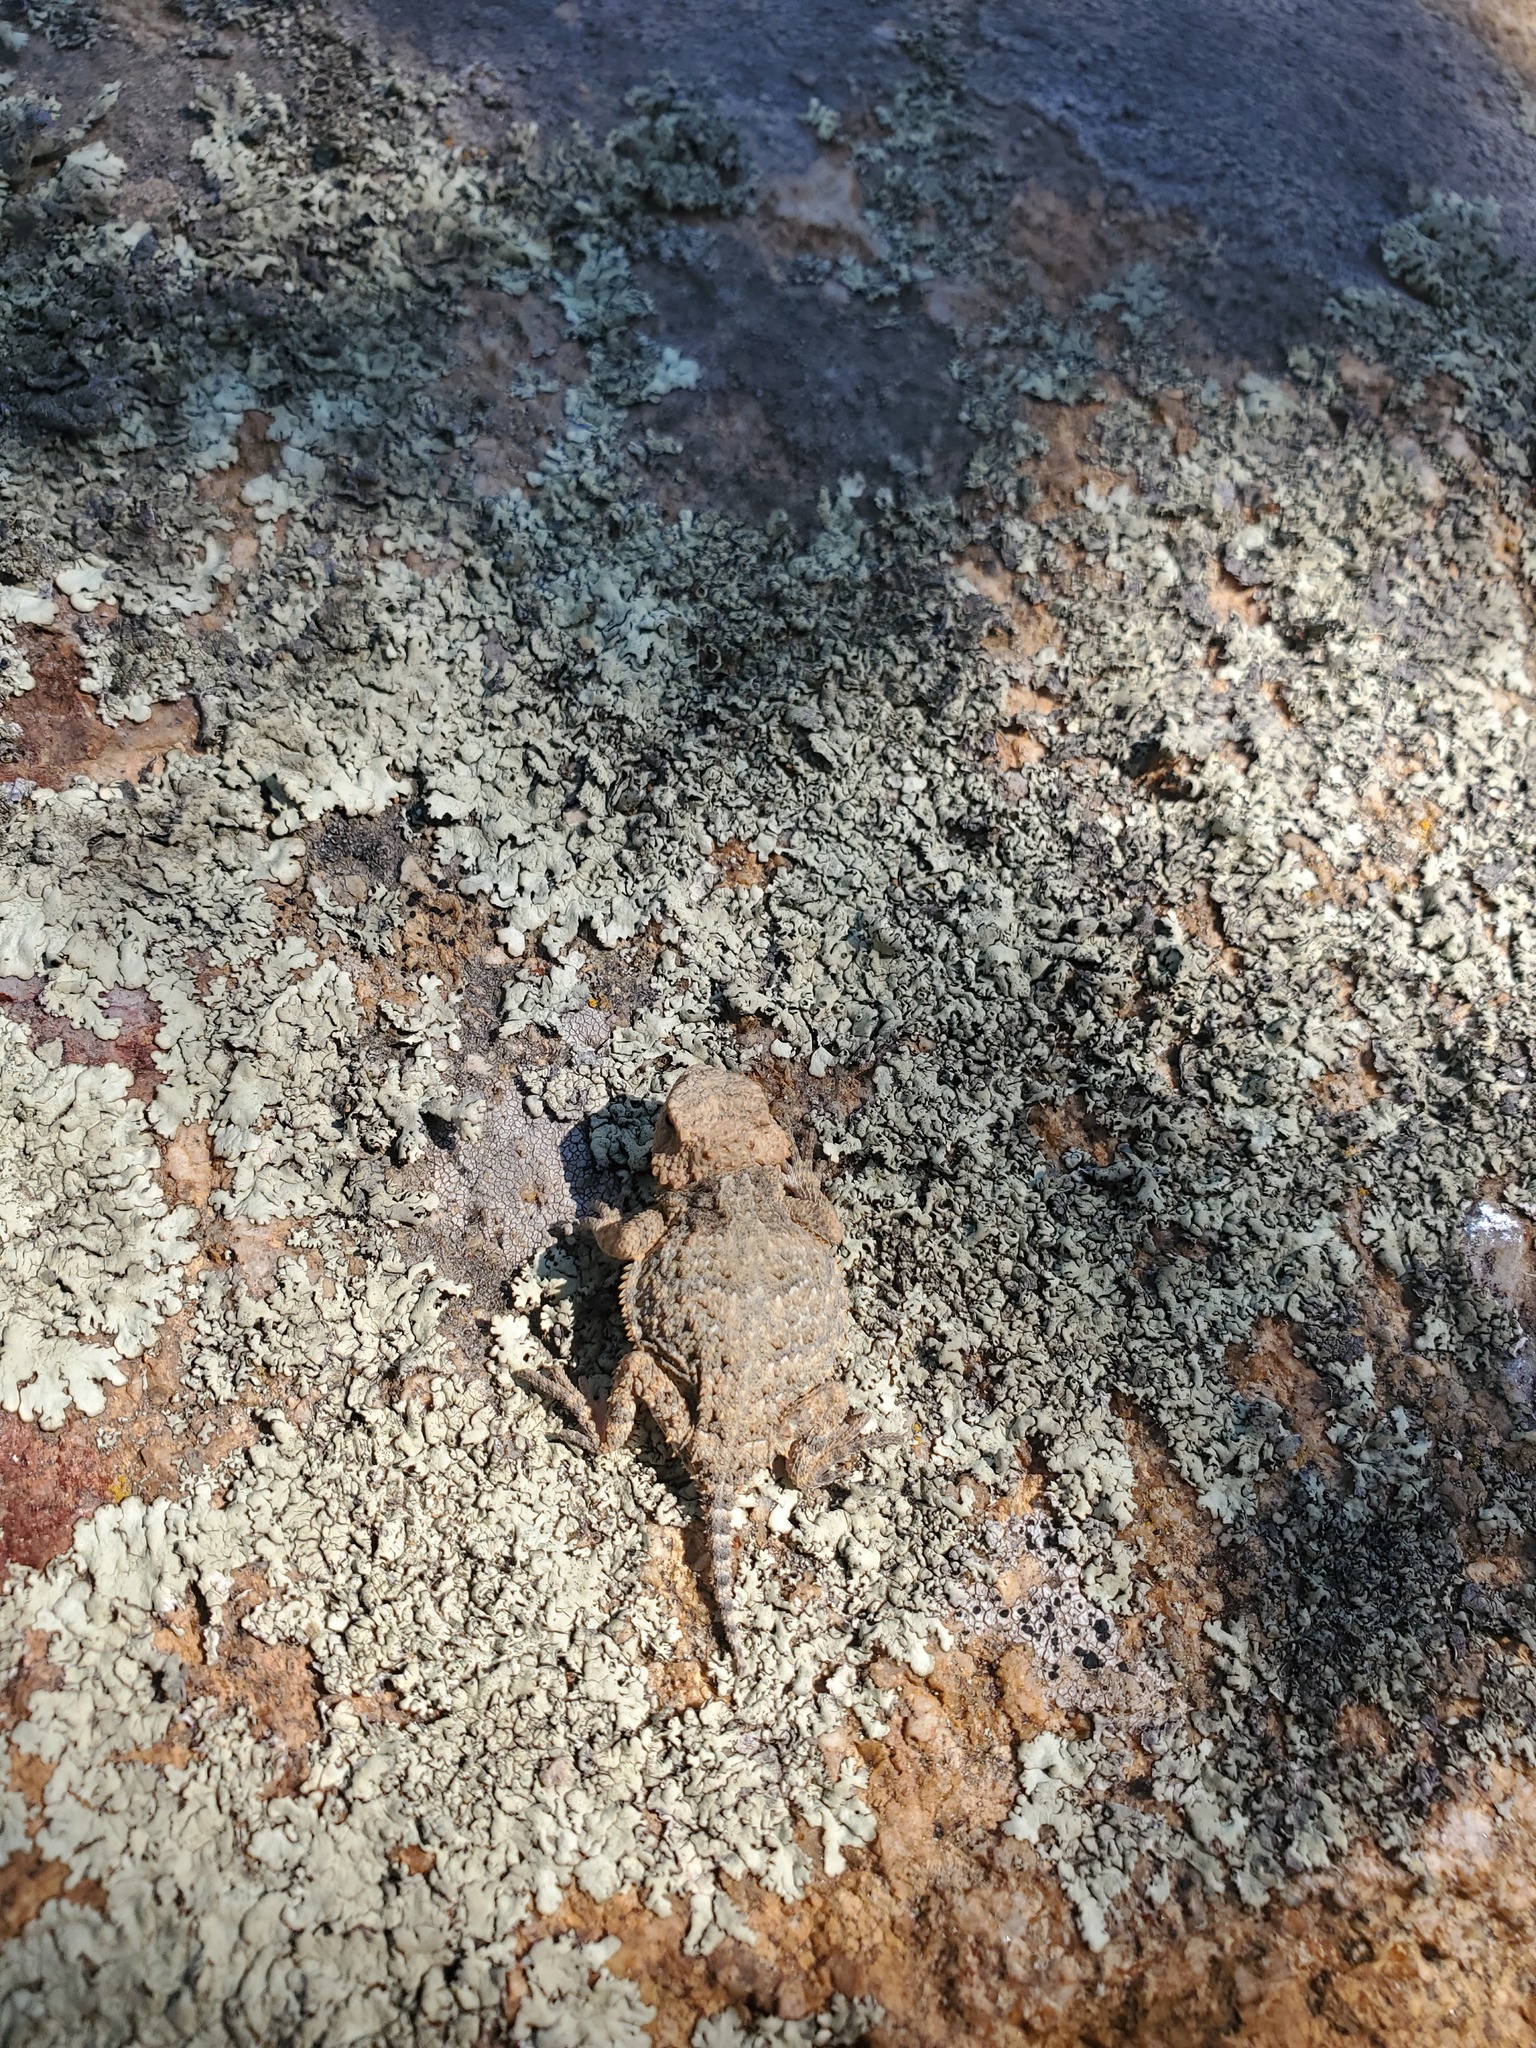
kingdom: Animalia
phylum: Chordata
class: Squamata
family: Phrynosomatidae
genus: Phrynosoma
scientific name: Phrynosoma hernandesi
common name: Greater short-horned lizard
